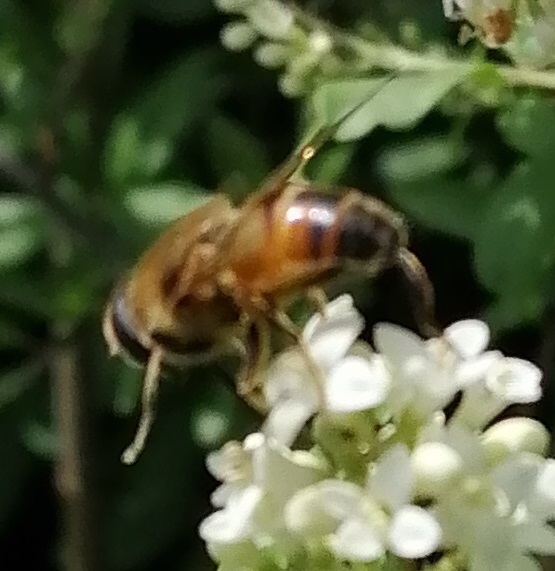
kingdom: Animalia
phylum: Arthropoda
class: Insecta
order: Diptera
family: Syrphidae
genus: Eristalis
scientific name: Eristalis tenax
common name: Drone fly
